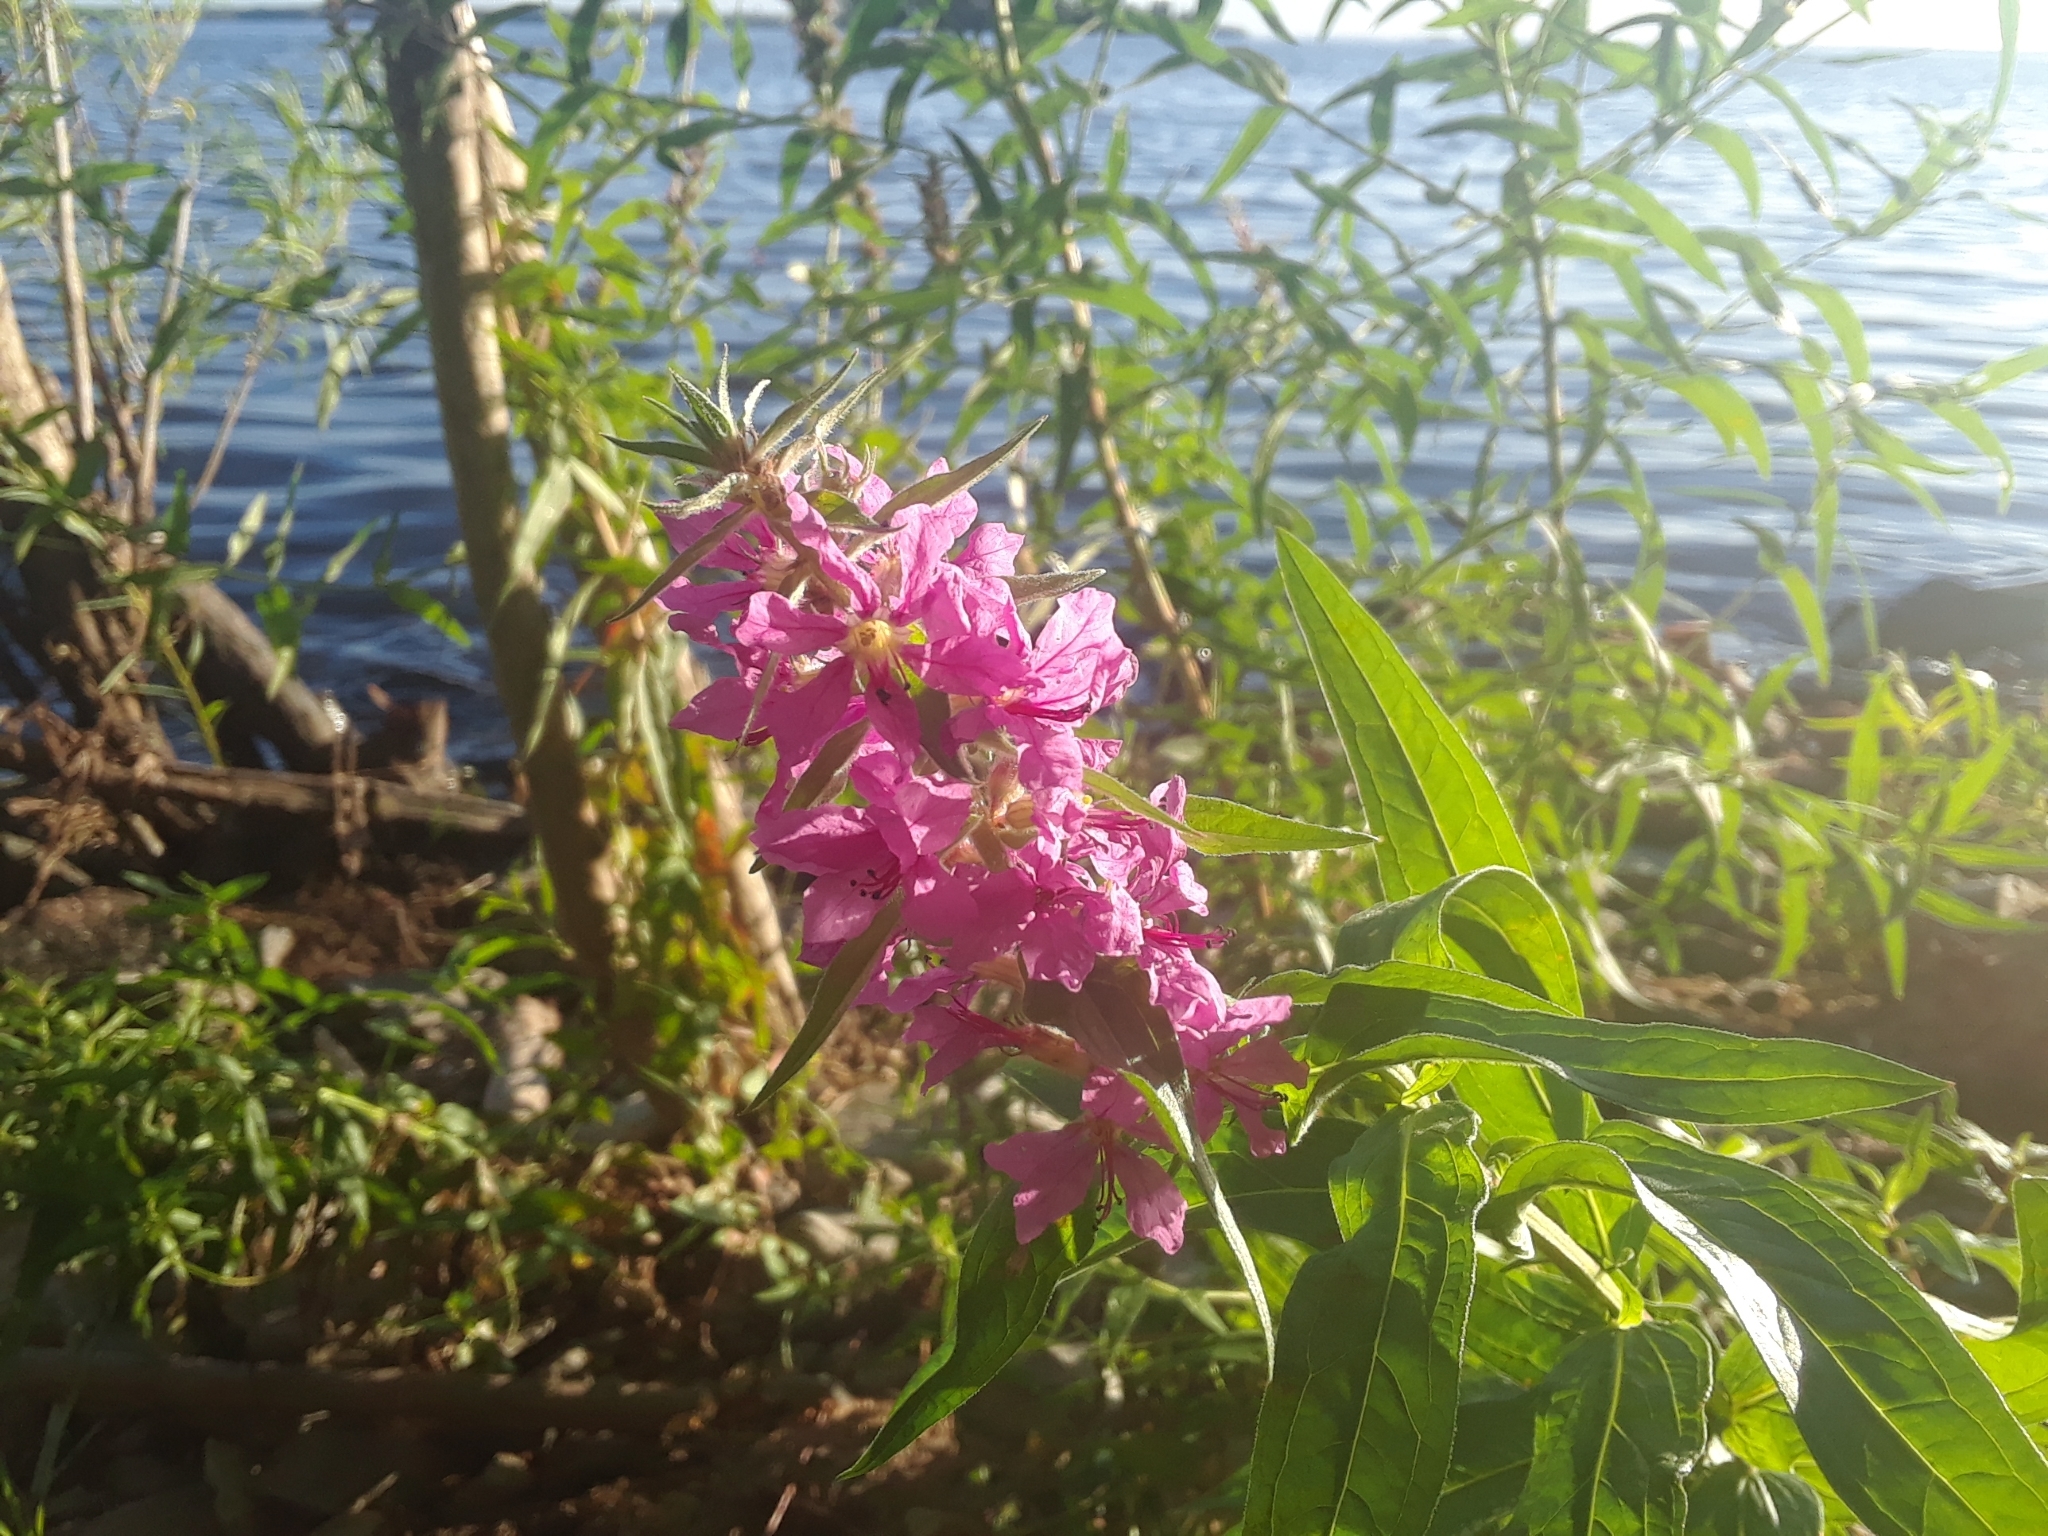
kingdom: Plantae
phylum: Tracheophyta
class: Magnoliopsida
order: Myrtales
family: Lythraceae
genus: Lythrum
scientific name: Lythrum salicaria
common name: Purple loosestrife
